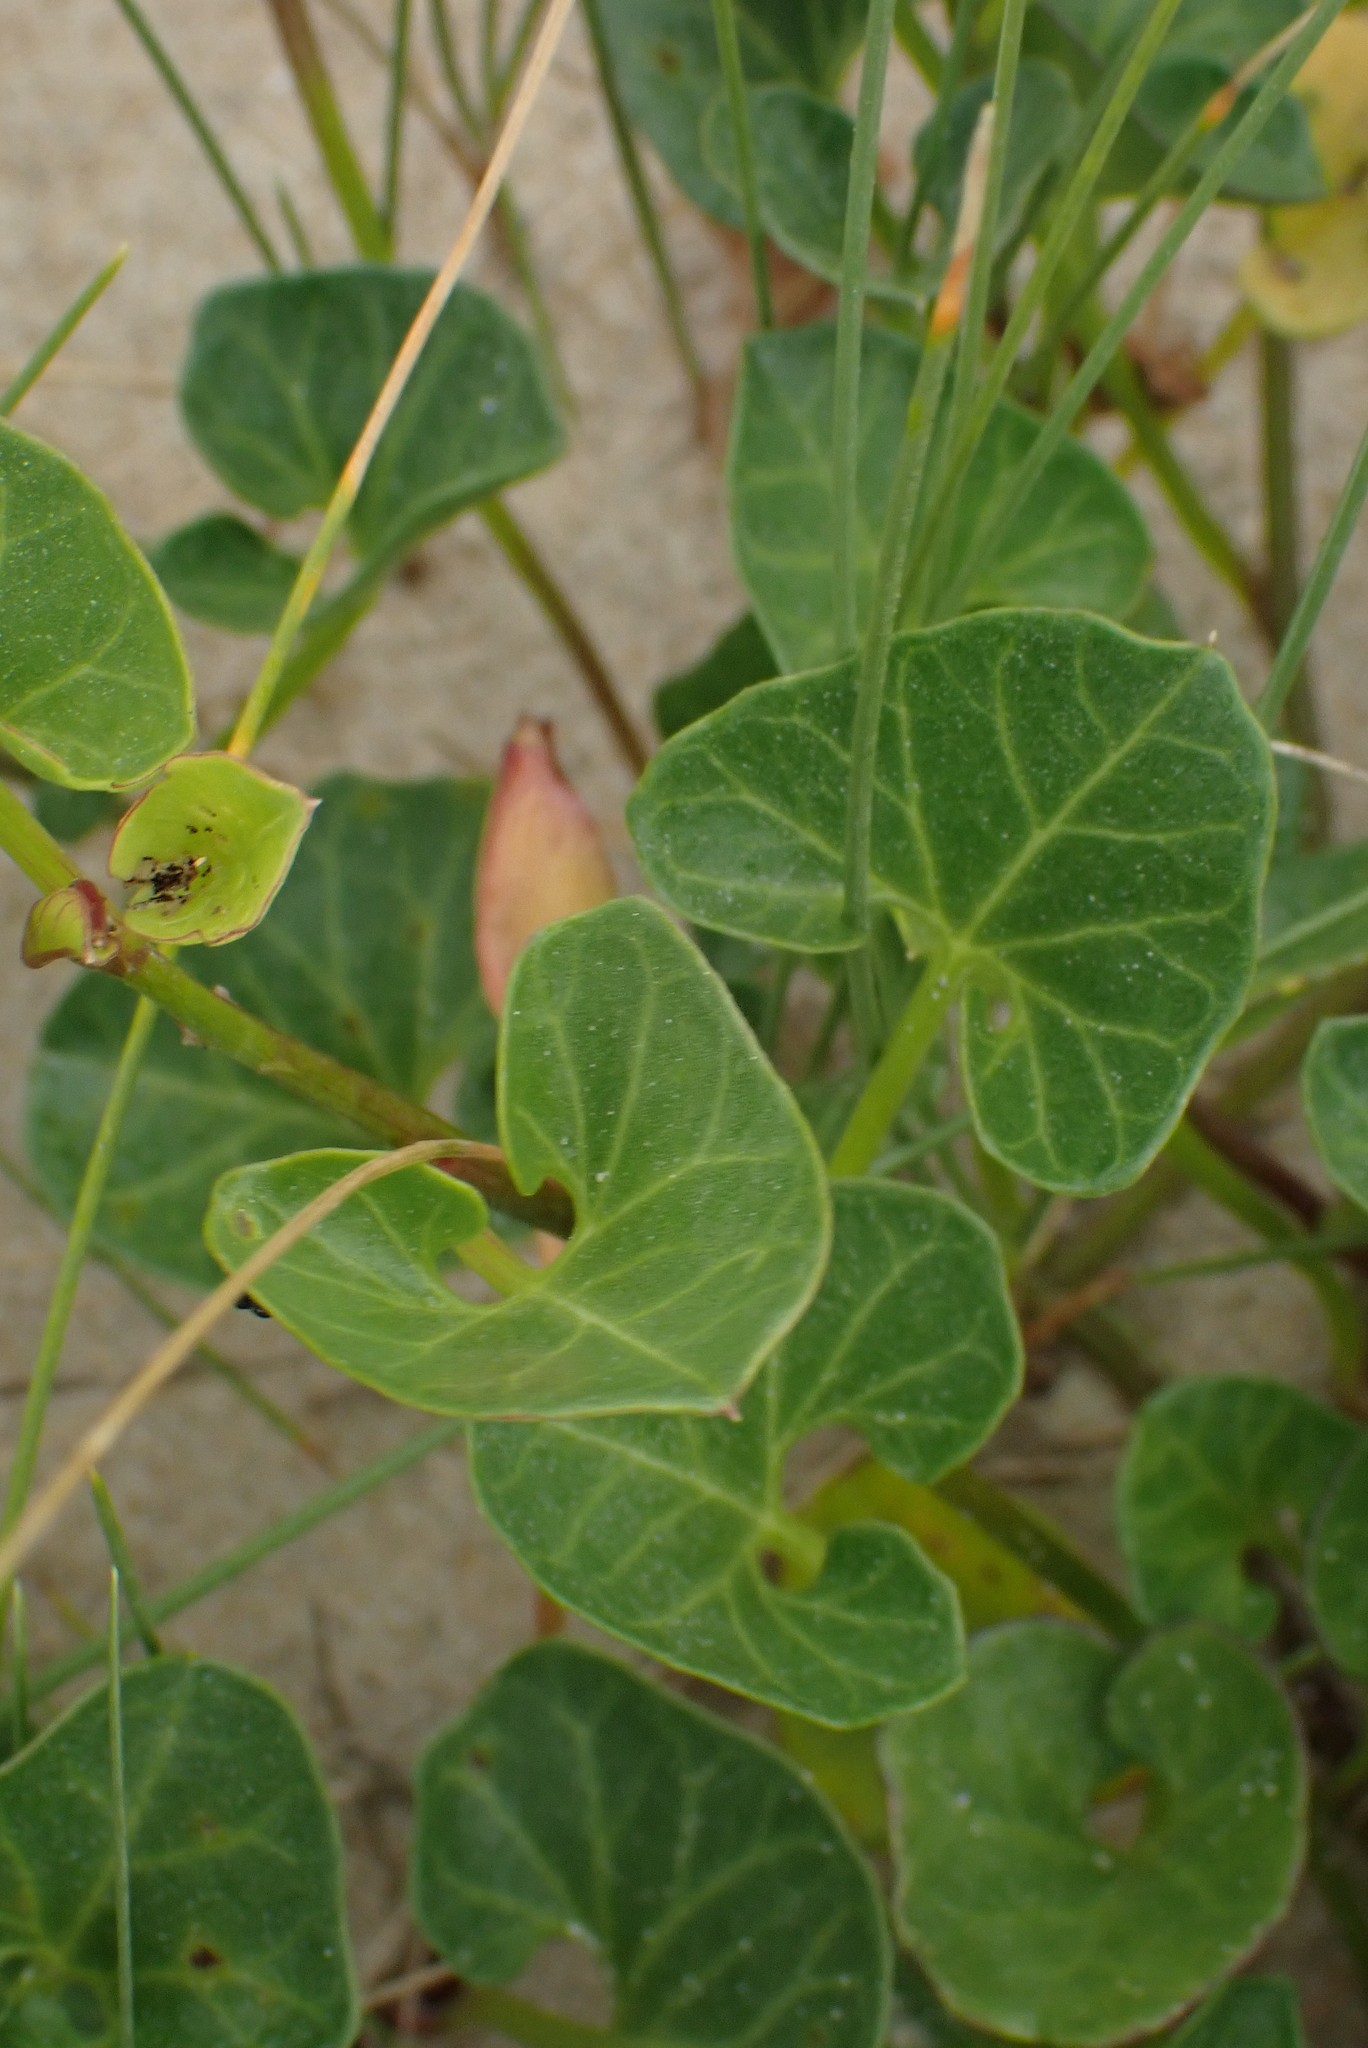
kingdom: Plantae
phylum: Tracheophyta
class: Magnoliopsida
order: Solanales
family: Convolvulaceae
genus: Calystegia
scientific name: Calystegia soldanella
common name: Sea bindweed
